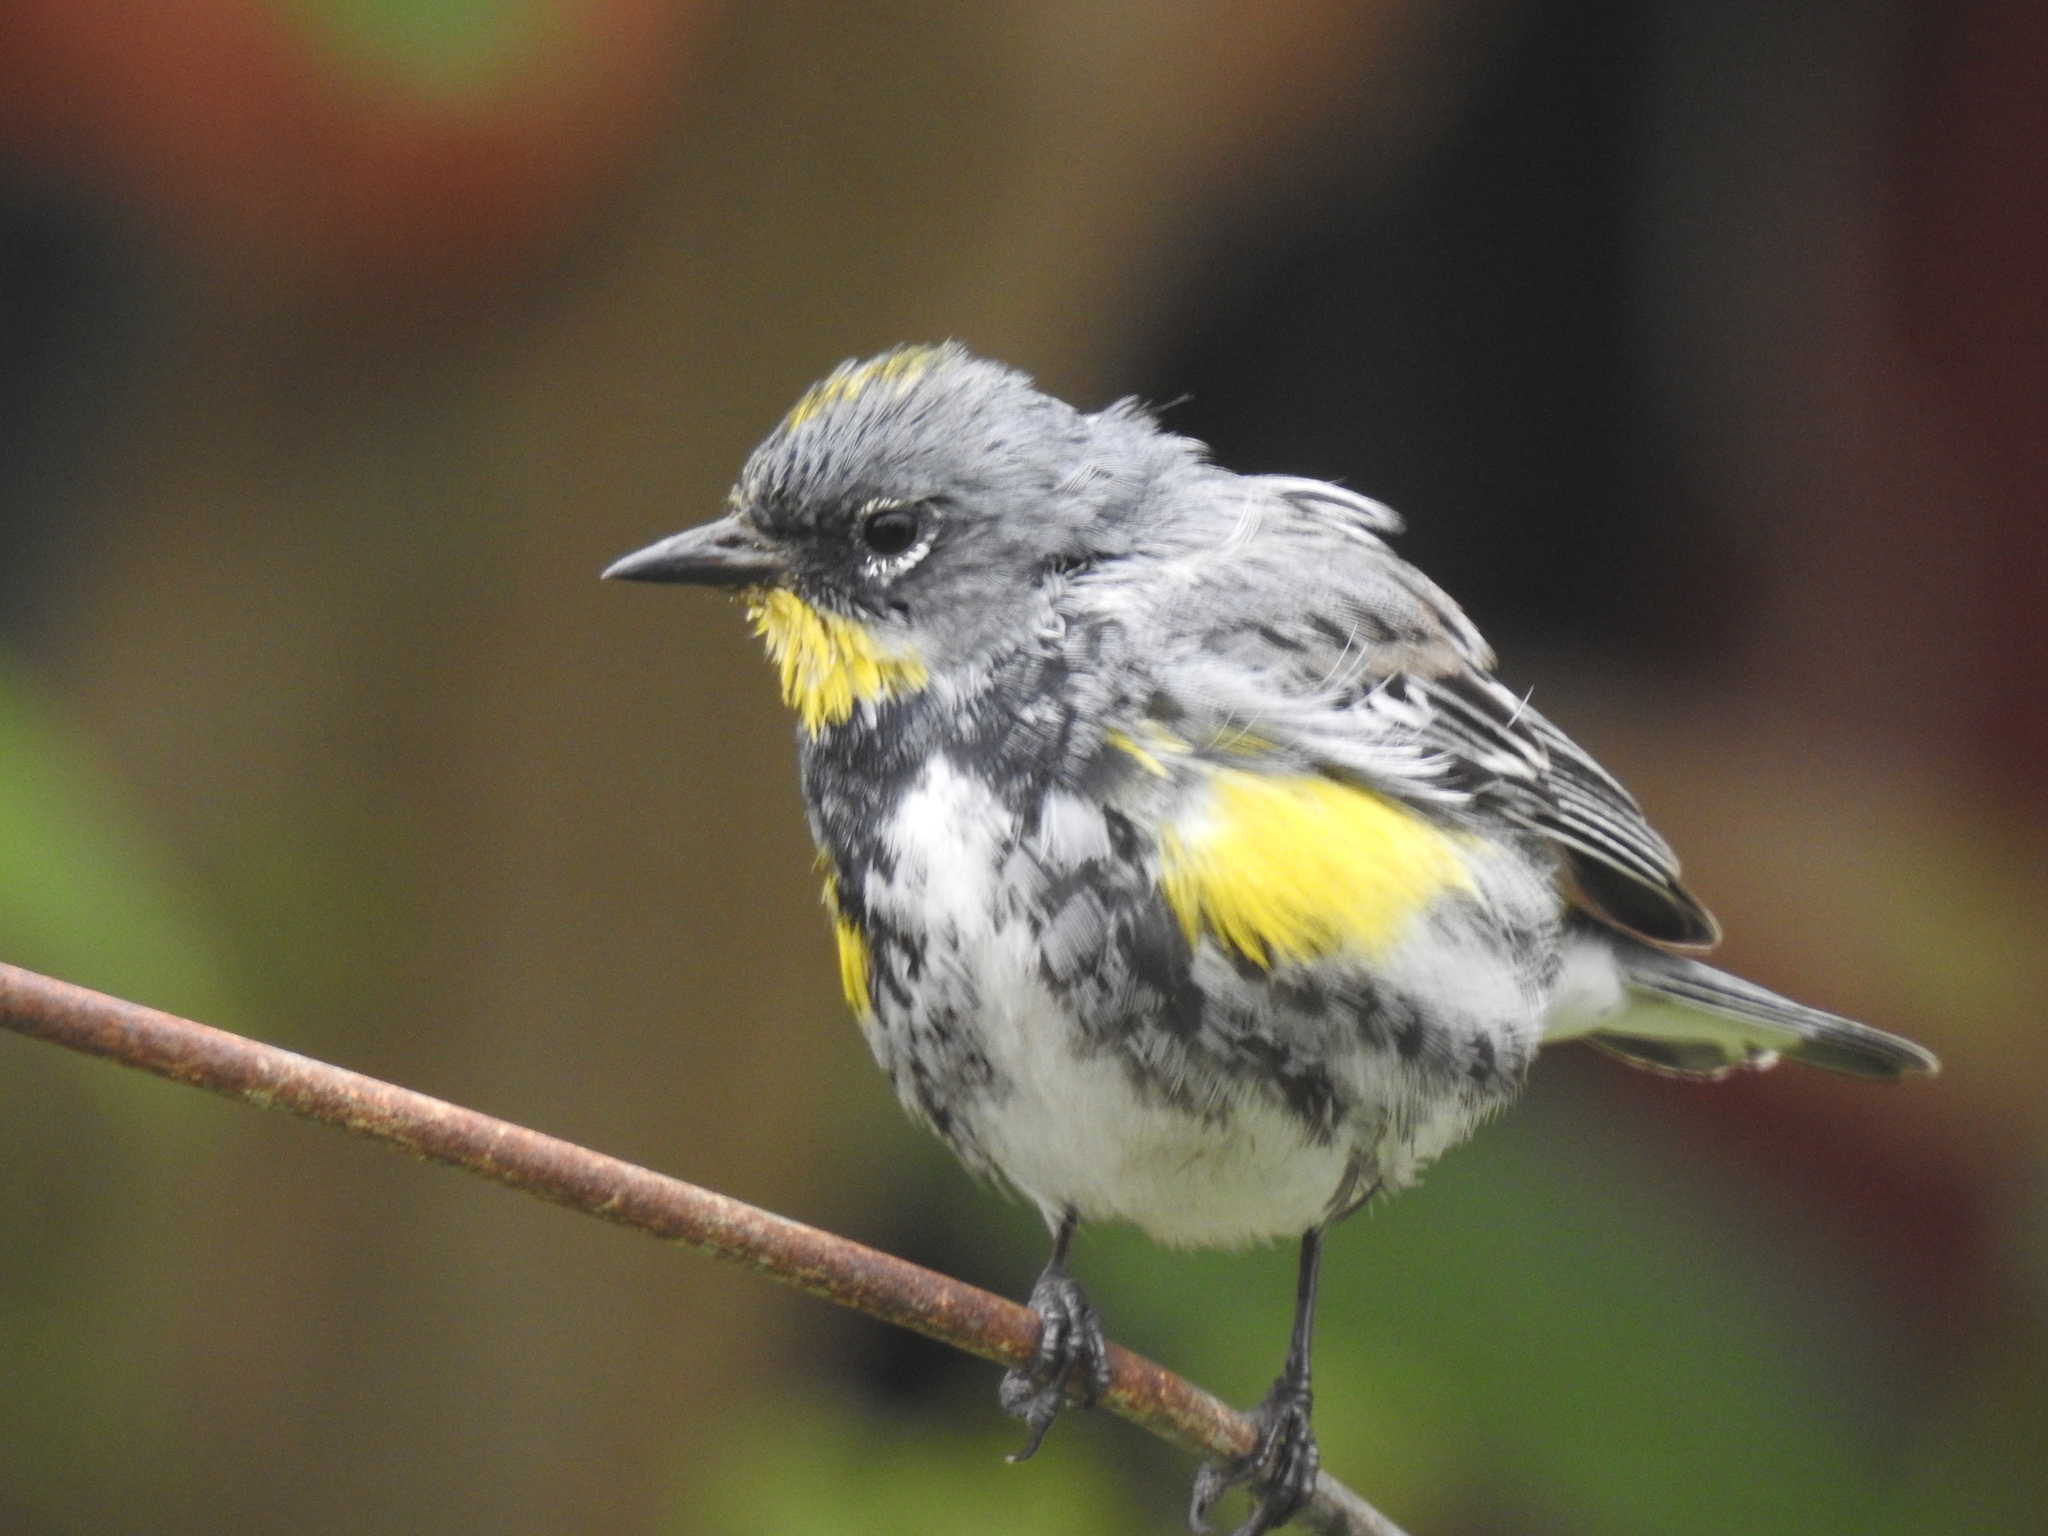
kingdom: Animalia
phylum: Chordata
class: Aves
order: Passeriformes
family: Parulidae
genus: Setophaga
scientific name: Setophaga coronata
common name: Myrtle warbler
